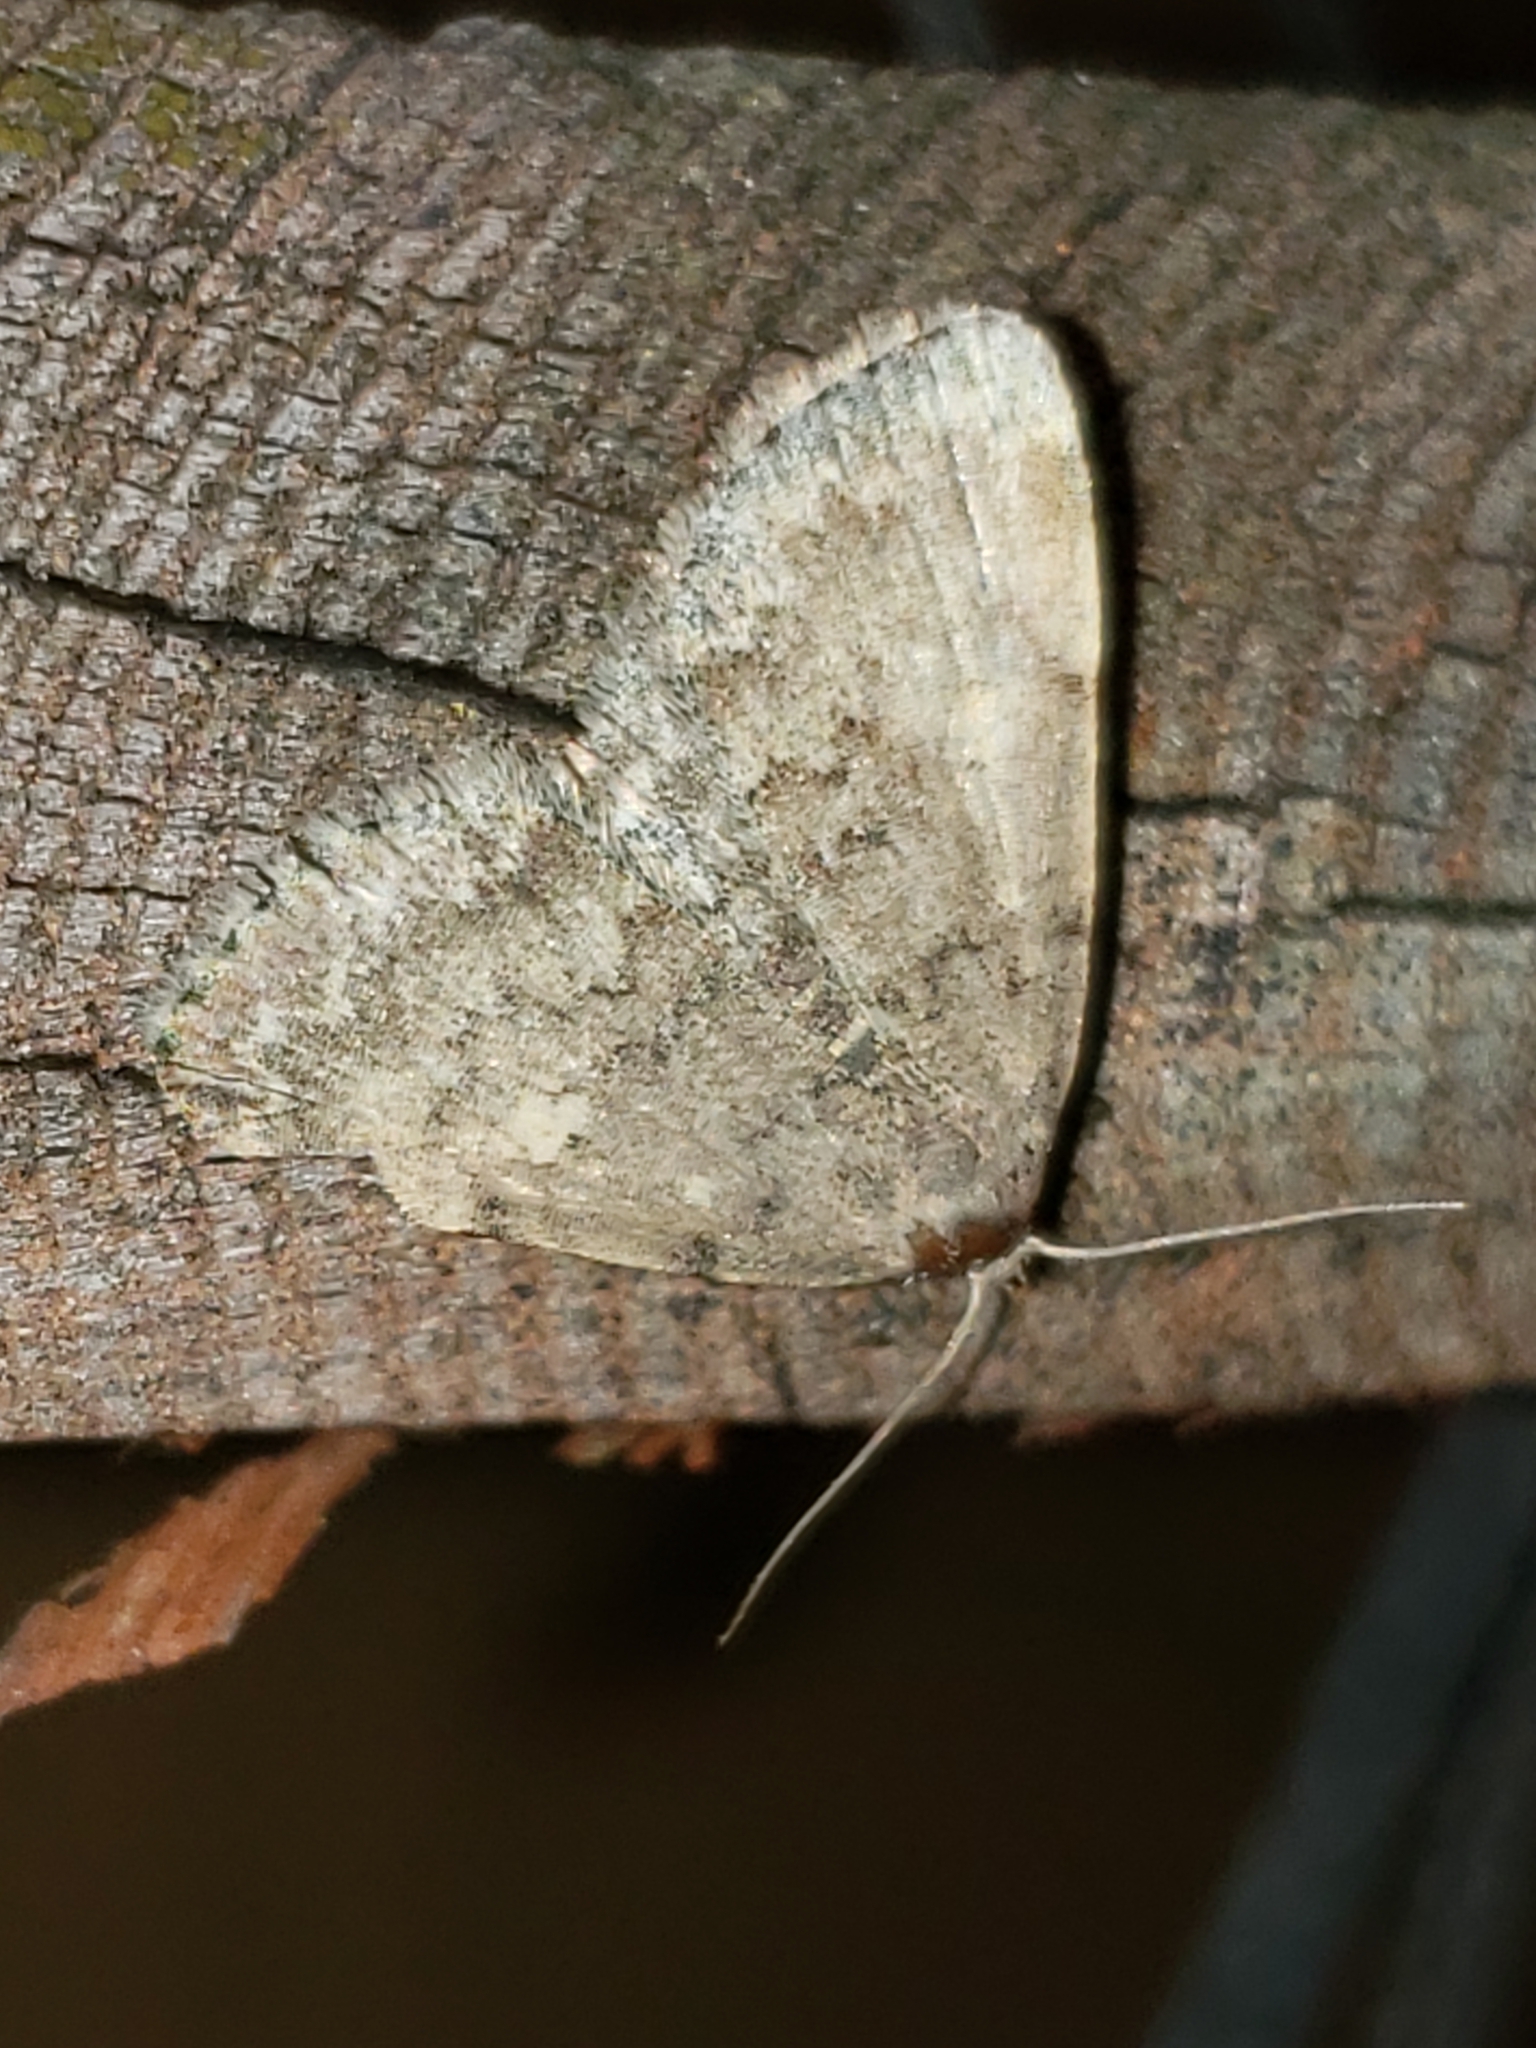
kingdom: Animalia
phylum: Arthropoda
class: Insecta
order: Lepidoptera
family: Erebidae
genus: Idia
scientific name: Idia aemula
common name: Common idia moth
